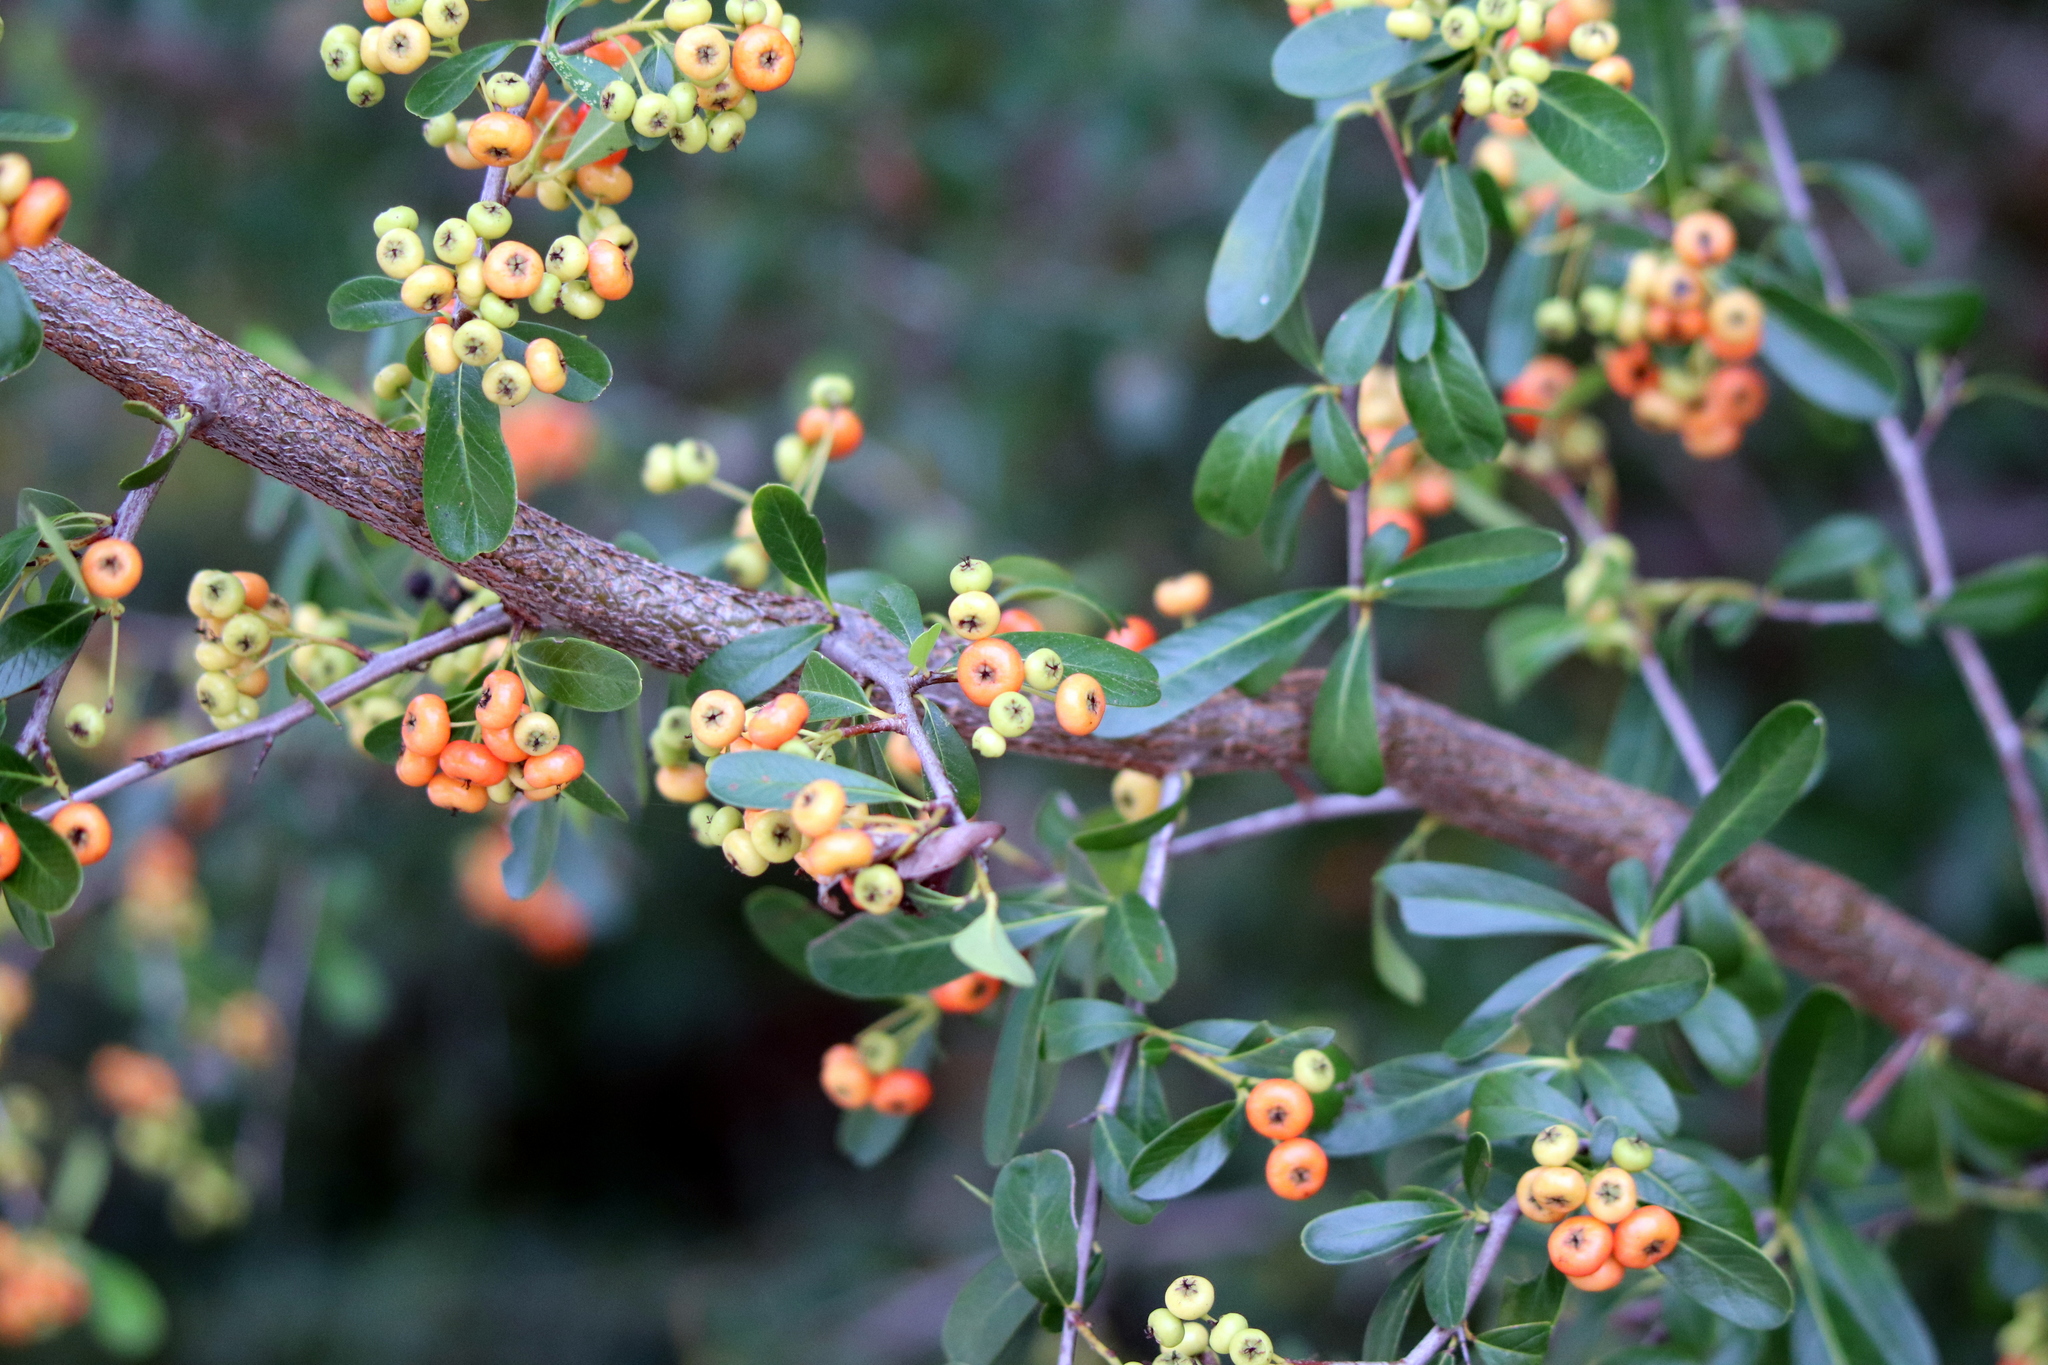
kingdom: Plantae
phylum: Tracheophyta
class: Magnoliopsida
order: Rosales
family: Rosaceae
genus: Pyracantha
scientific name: Pyracantha koidzumii
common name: Formosa firethorn
